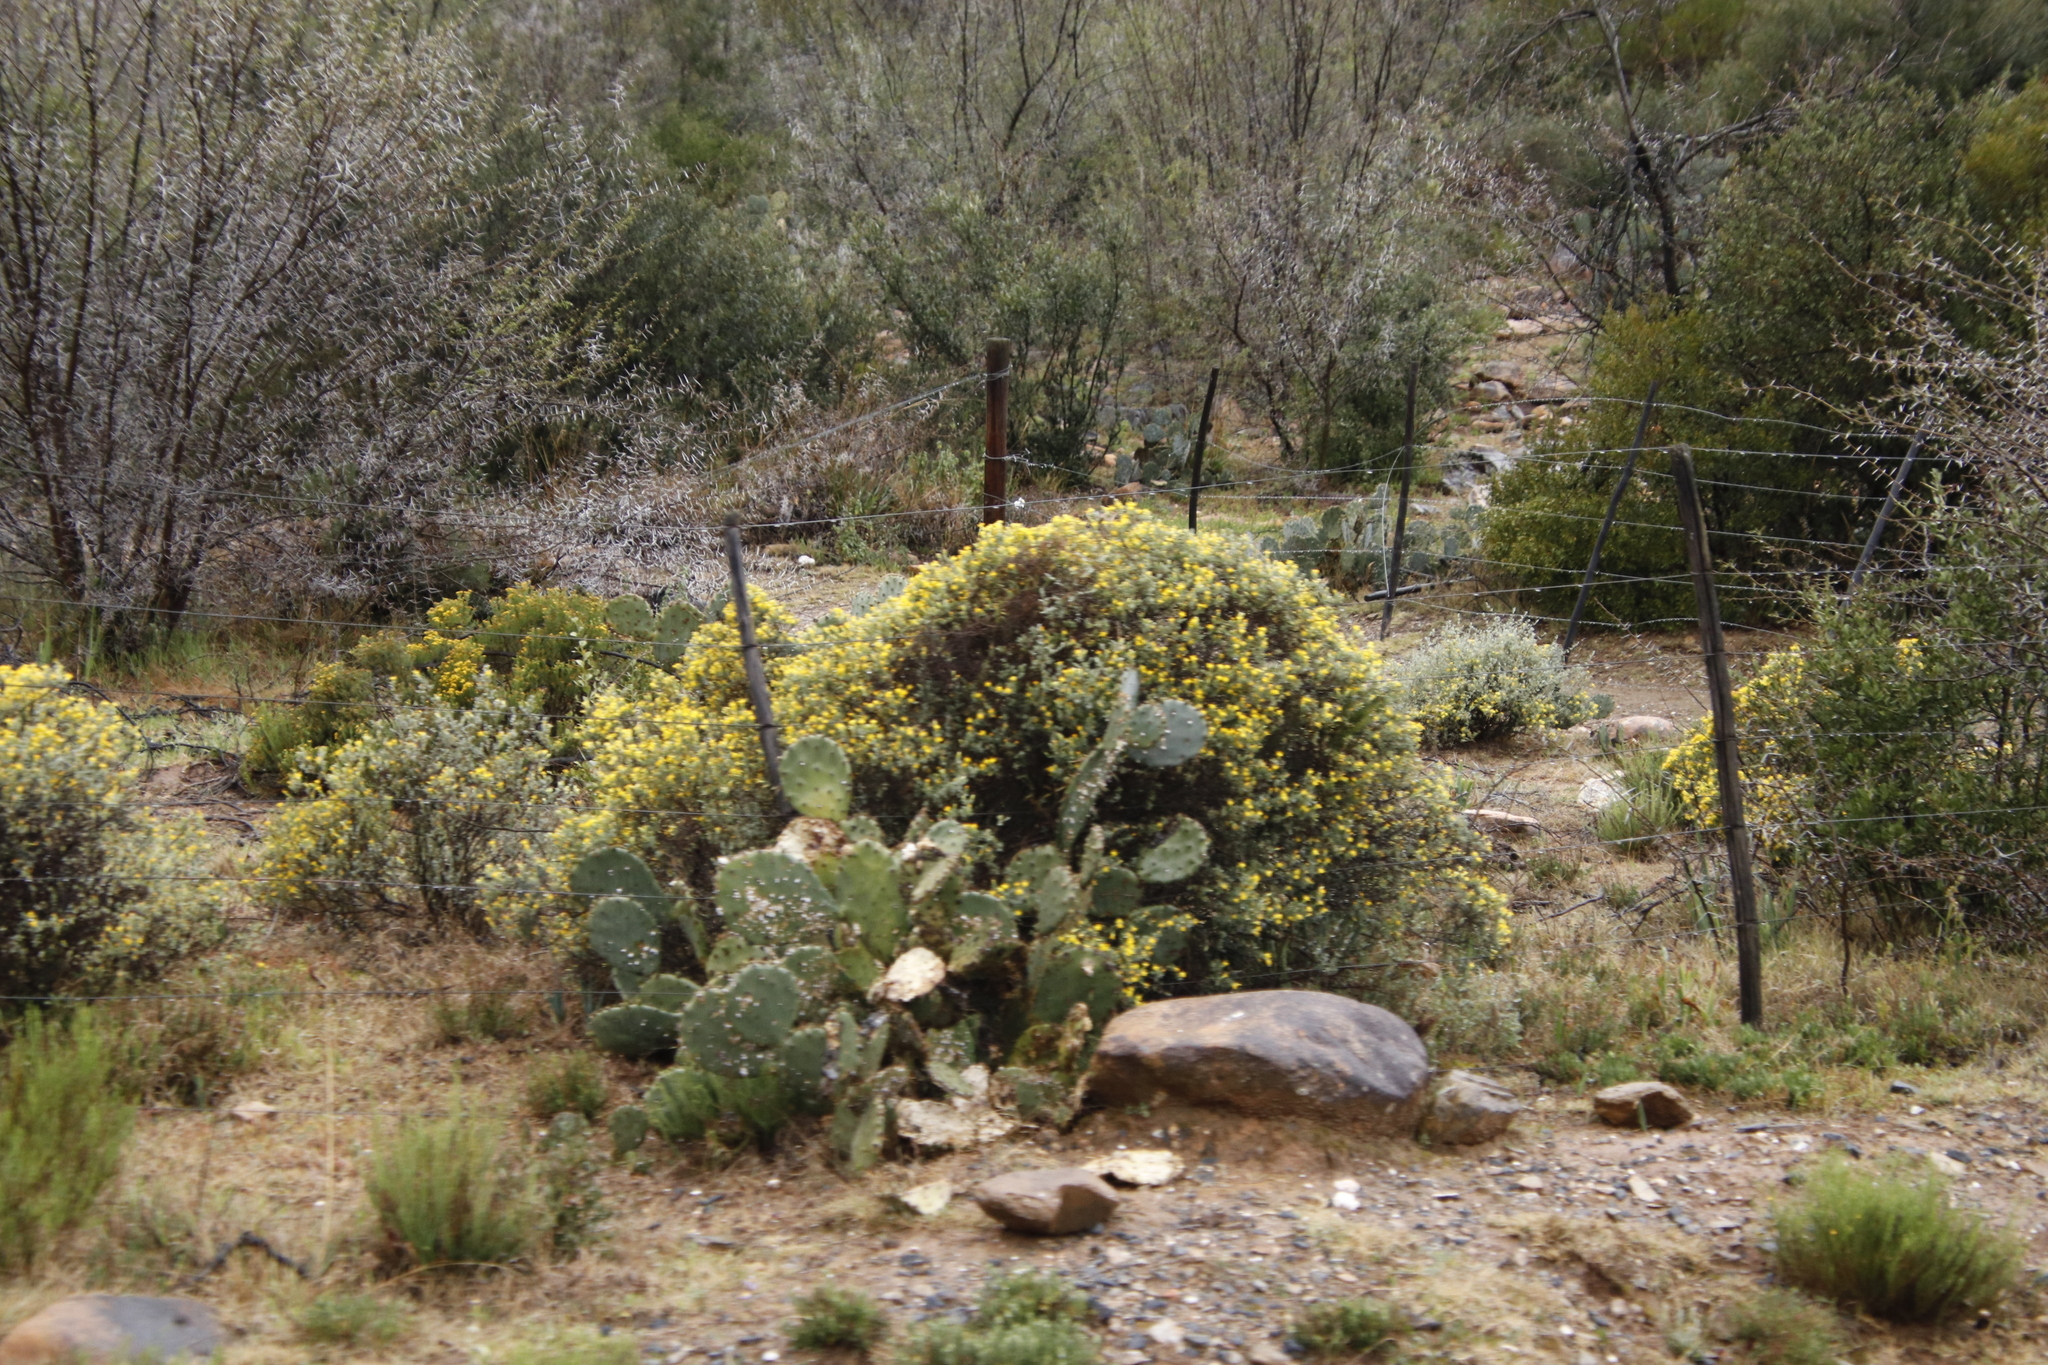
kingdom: Plantae
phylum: Tracheophyta
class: Magnoliopsida
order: Caryophyllales
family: Cactaceae
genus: Opuntia
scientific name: Opuntia ficus-indica
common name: Barbary fig
